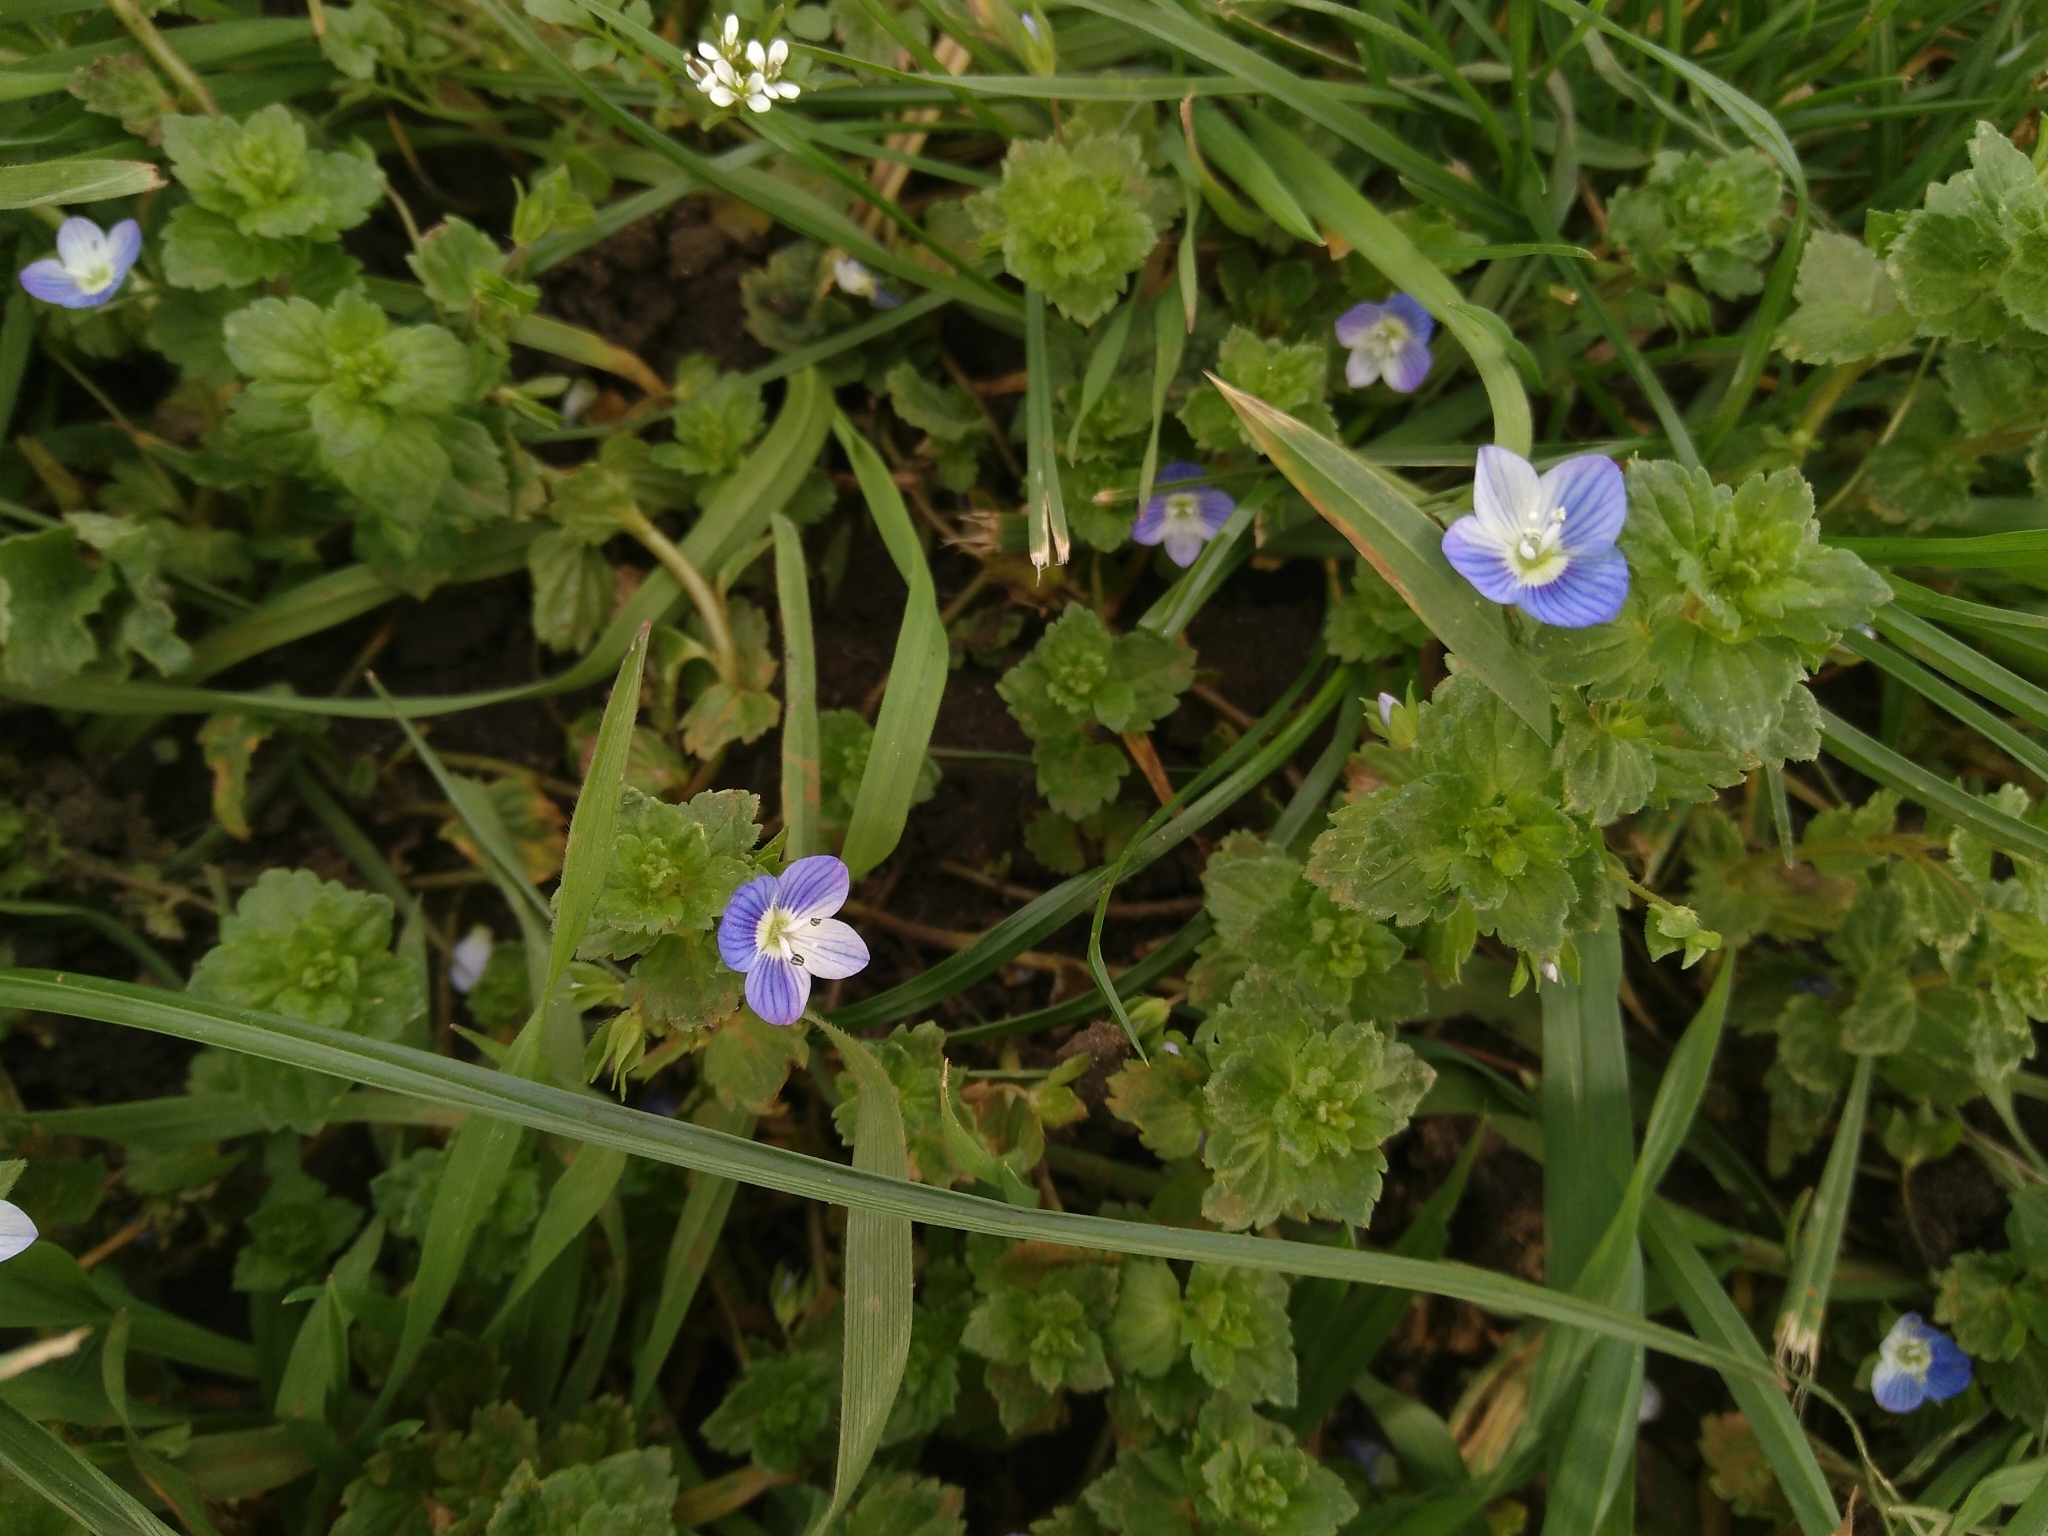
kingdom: Plantae
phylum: Tracheophyta
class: Magnoliopsida
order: Lamiales
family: Plantaginaceae
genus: Veronica
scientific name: Veronica persica
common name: Common field-speedwell
